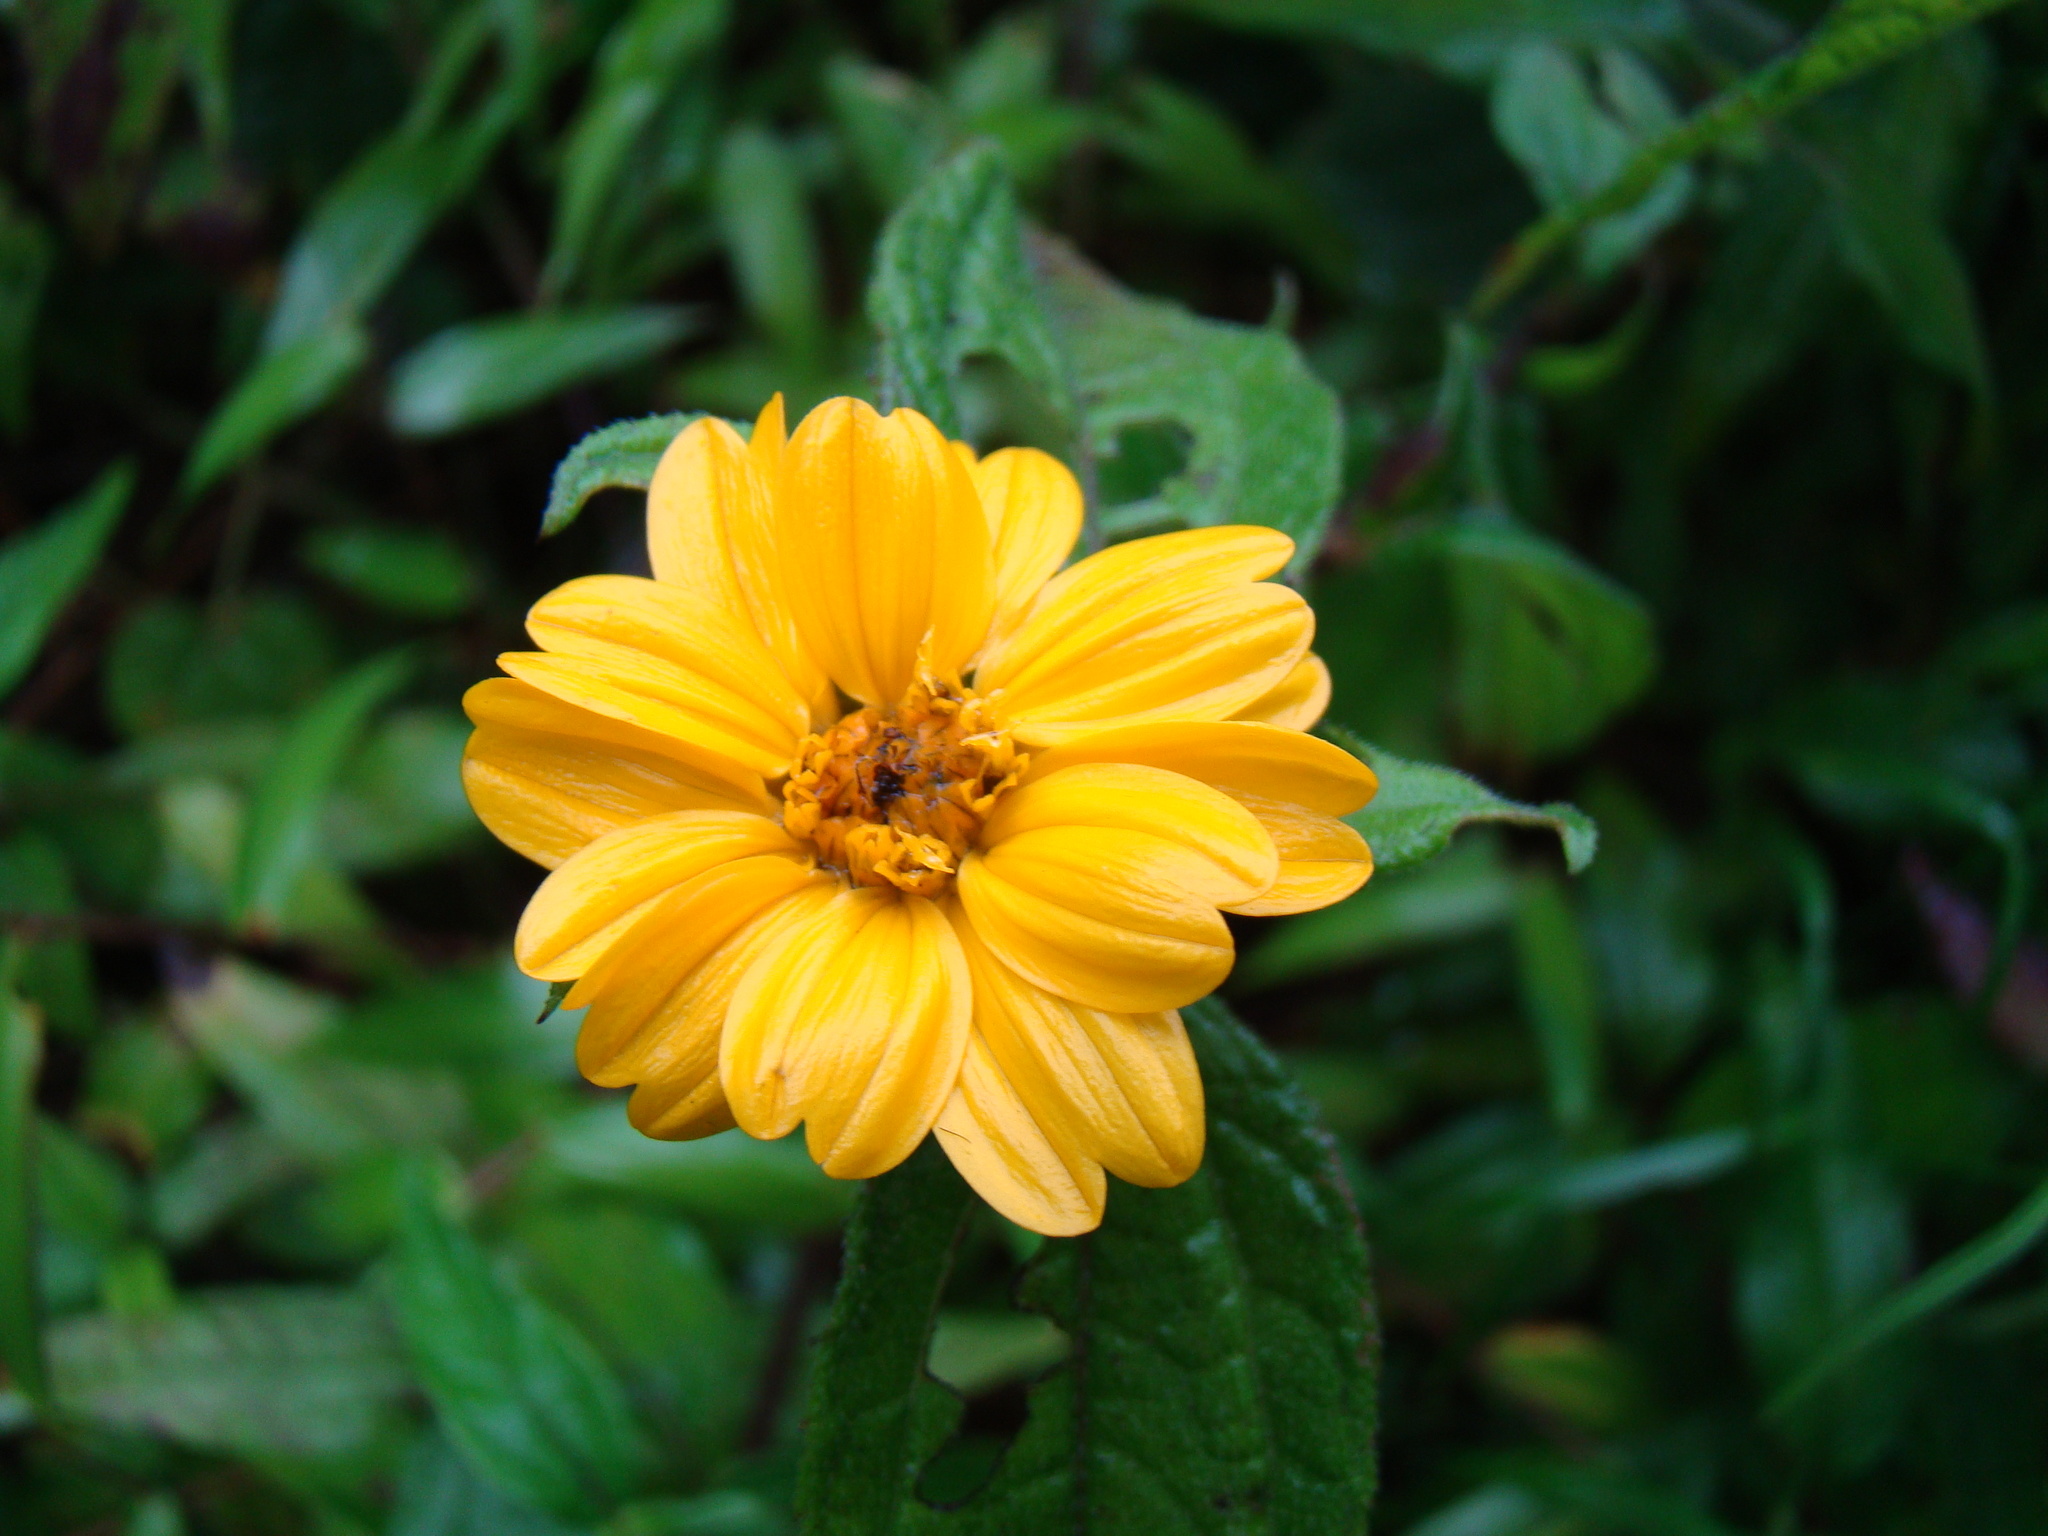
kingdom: Plantae
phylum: Tracheophyta
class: Magnoliopsida
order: Asterales
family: Asteraceae
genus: Sphagneticola
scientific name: Sphagneticola trilobata
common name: Bay biscayne creeping-oxeye
